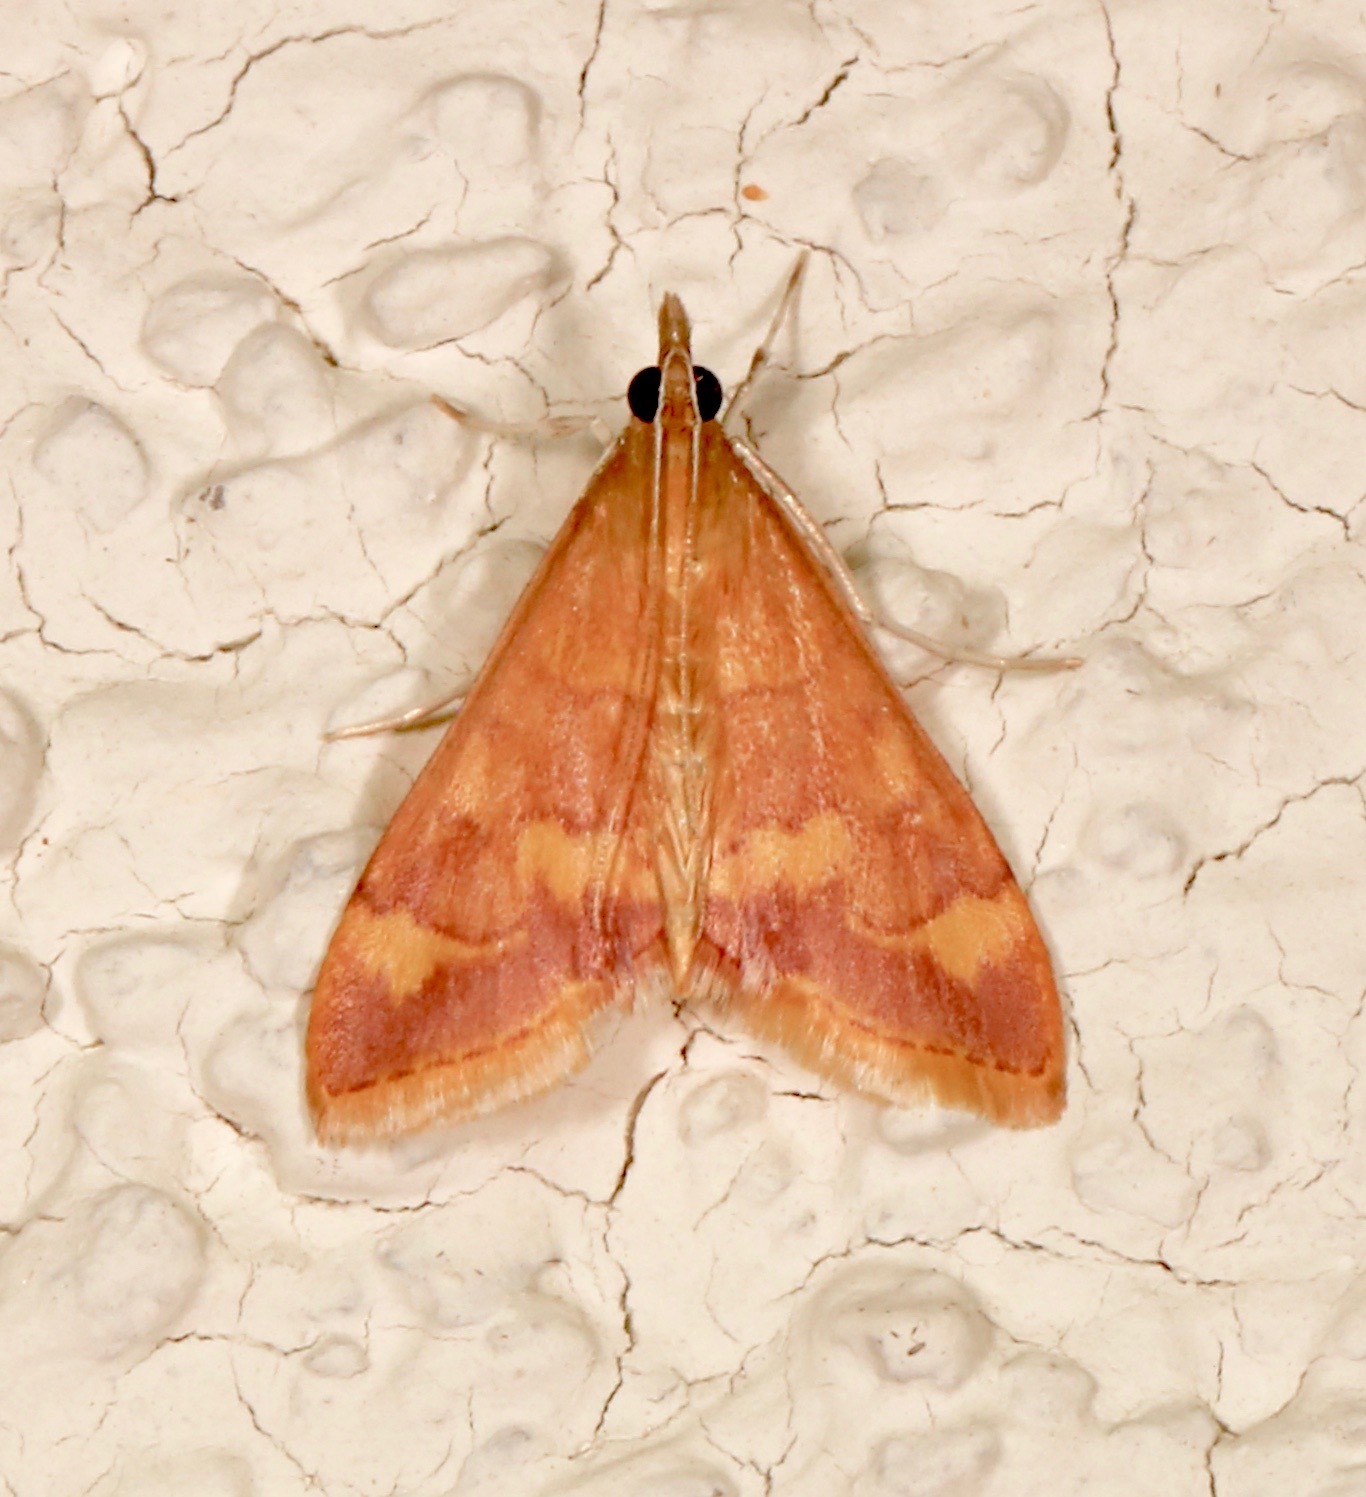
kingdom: Animalia
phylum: Arthropoda
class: Insecta
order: Lepidoptera
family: Crambidae
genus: Pyrausta
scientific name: Pyrausta pseudonythesalis
